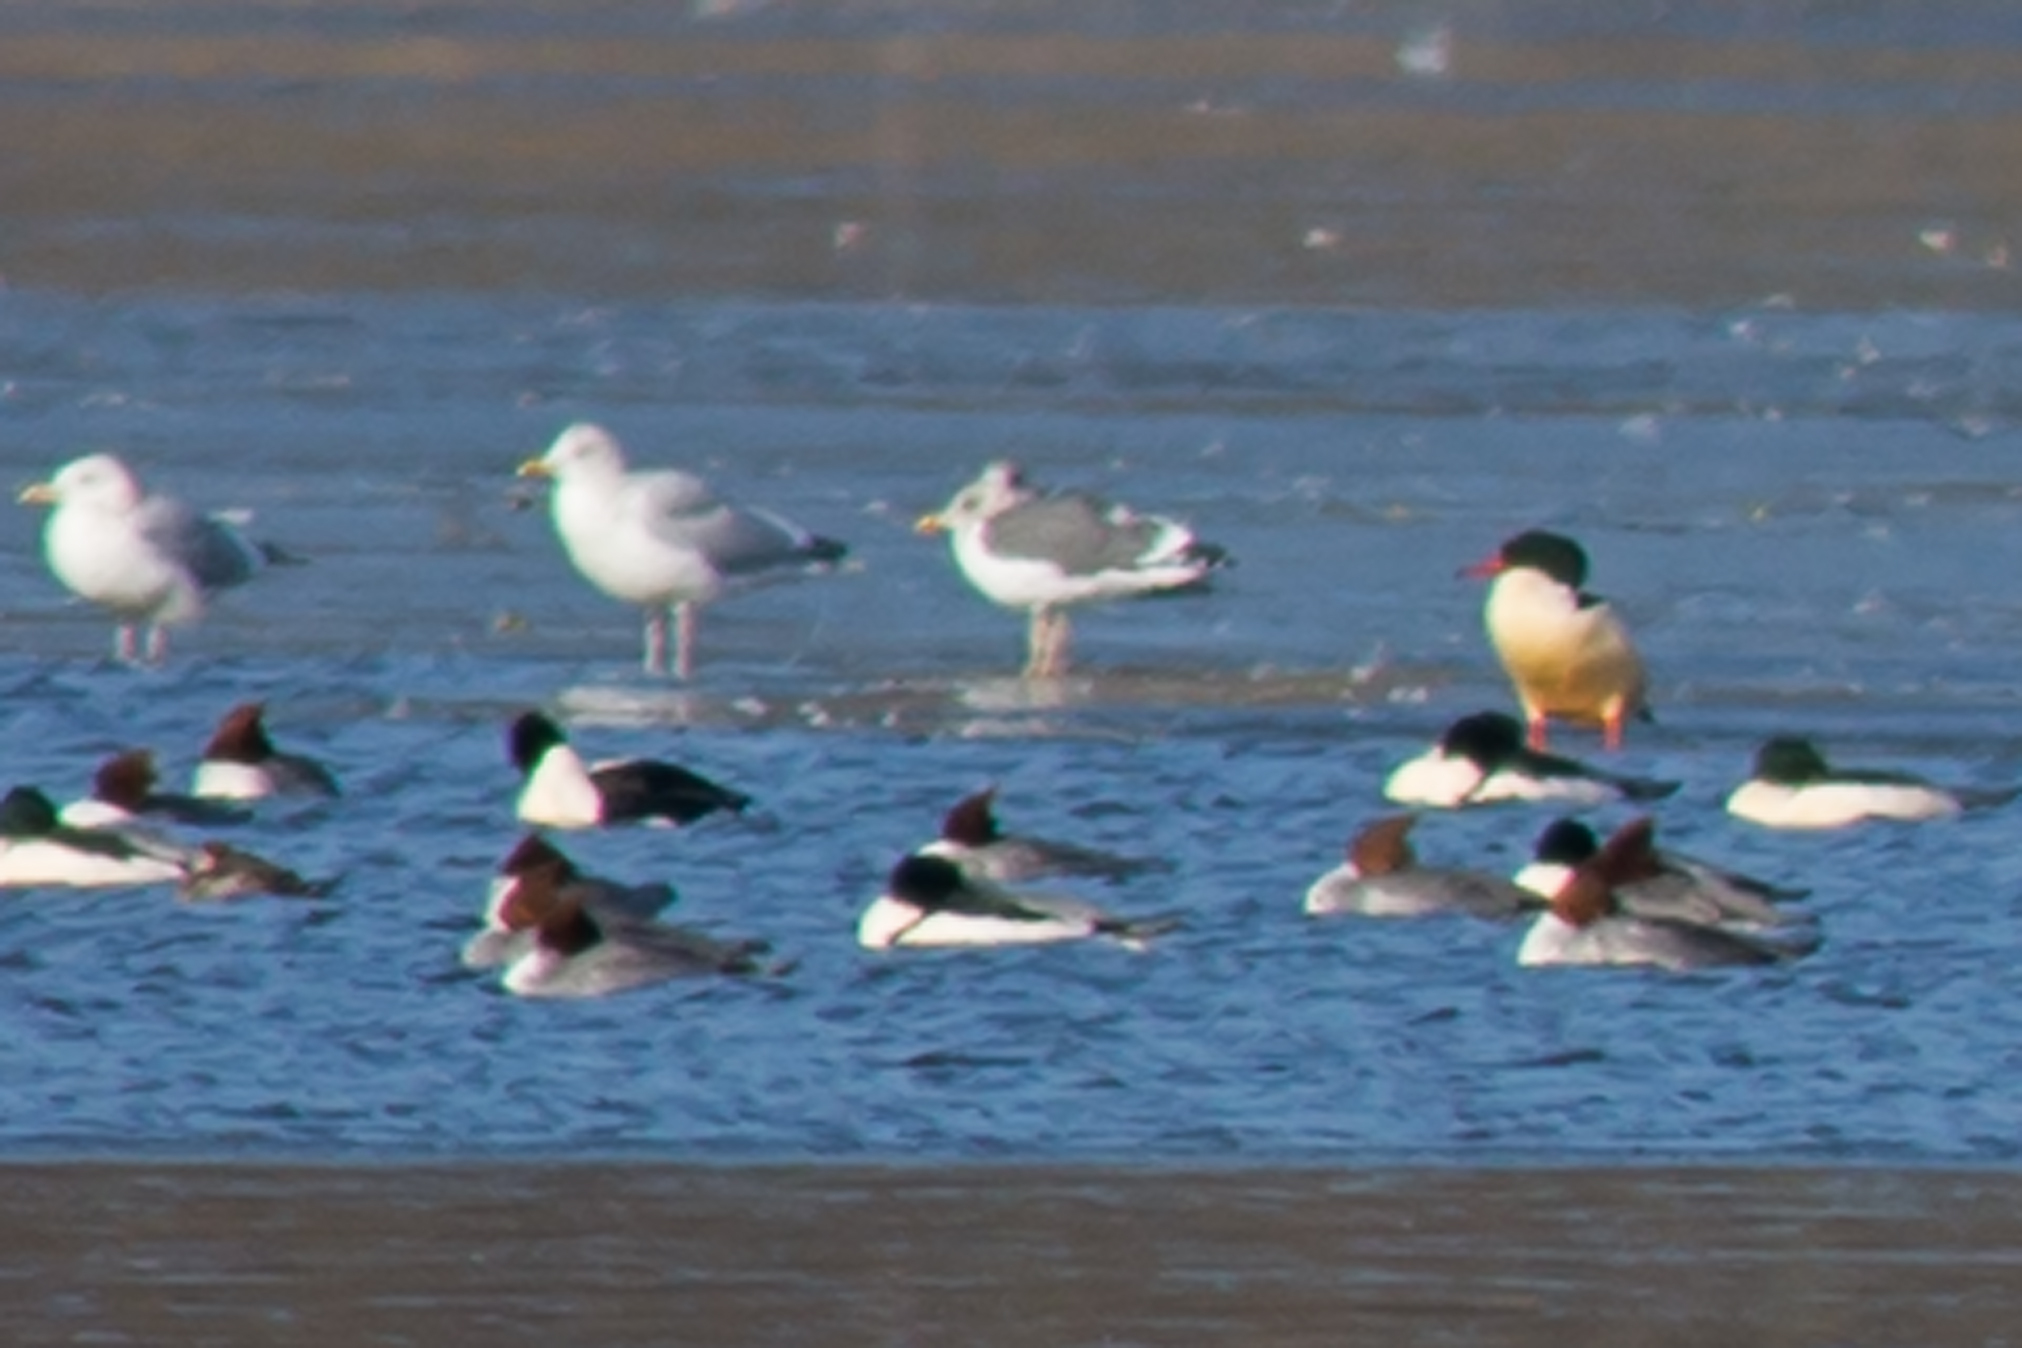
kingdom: Animalia
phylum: Chordata
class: Aves
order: Charadriiformes
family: Laridae
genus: Larus
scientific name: Larus argentatus
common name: Herring gull
